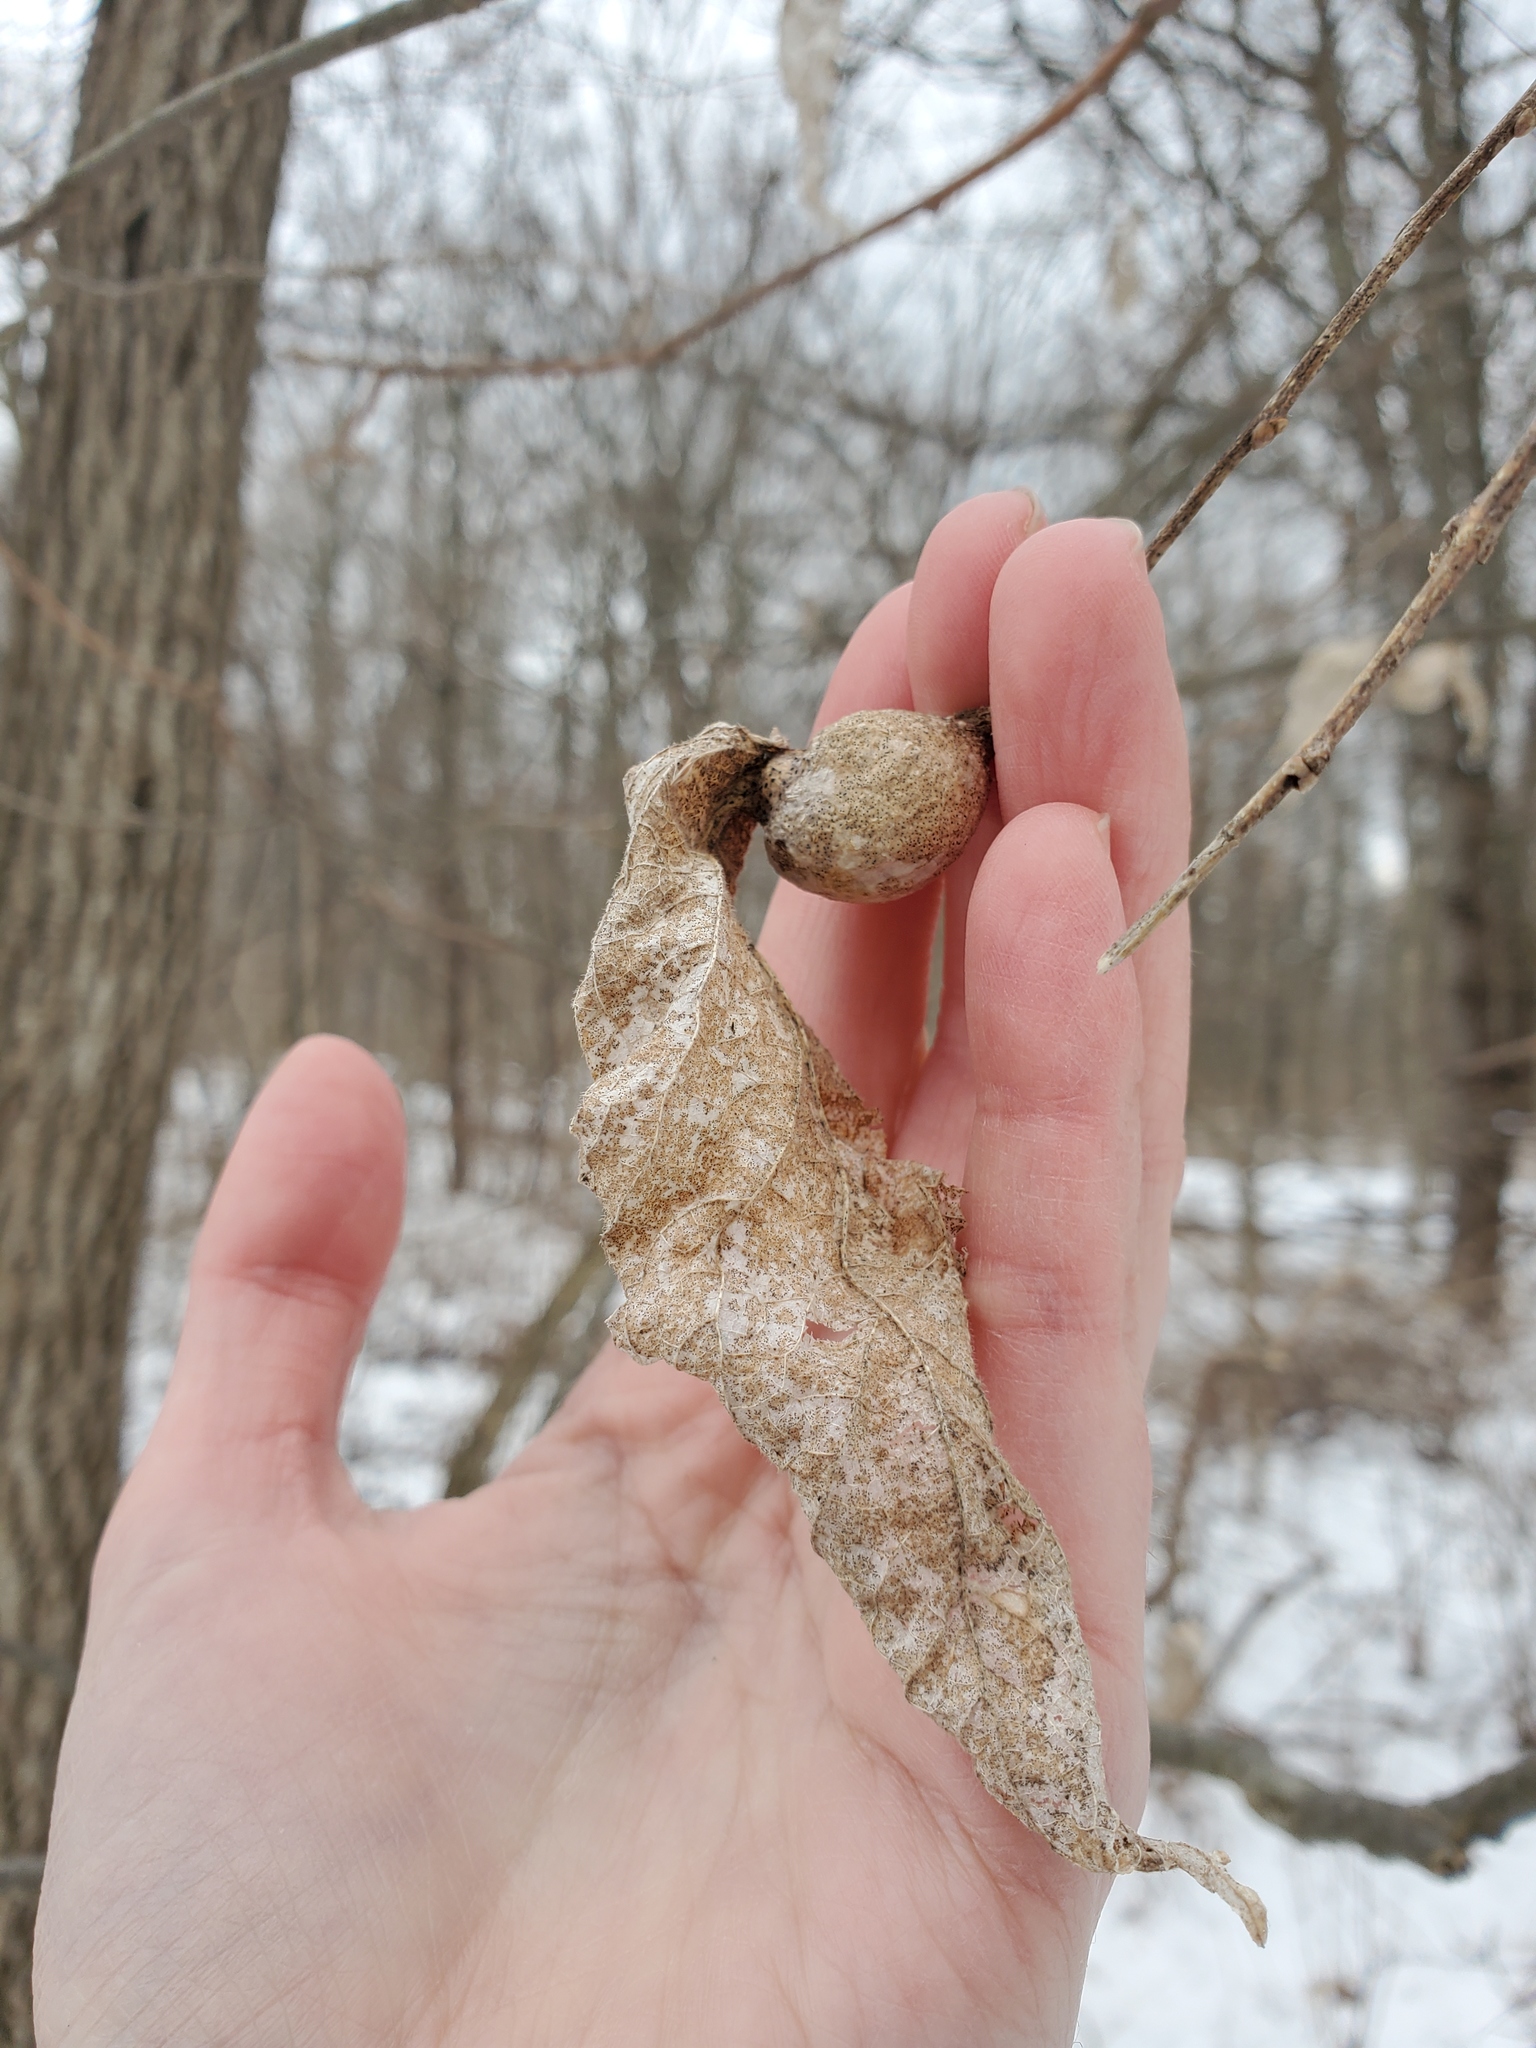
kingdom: Animalia
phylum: Arthropoda
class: Insecta
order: Hemiptera
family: Aphalaridae
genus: Pachypsylla
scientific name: Pachypsylla venusta
